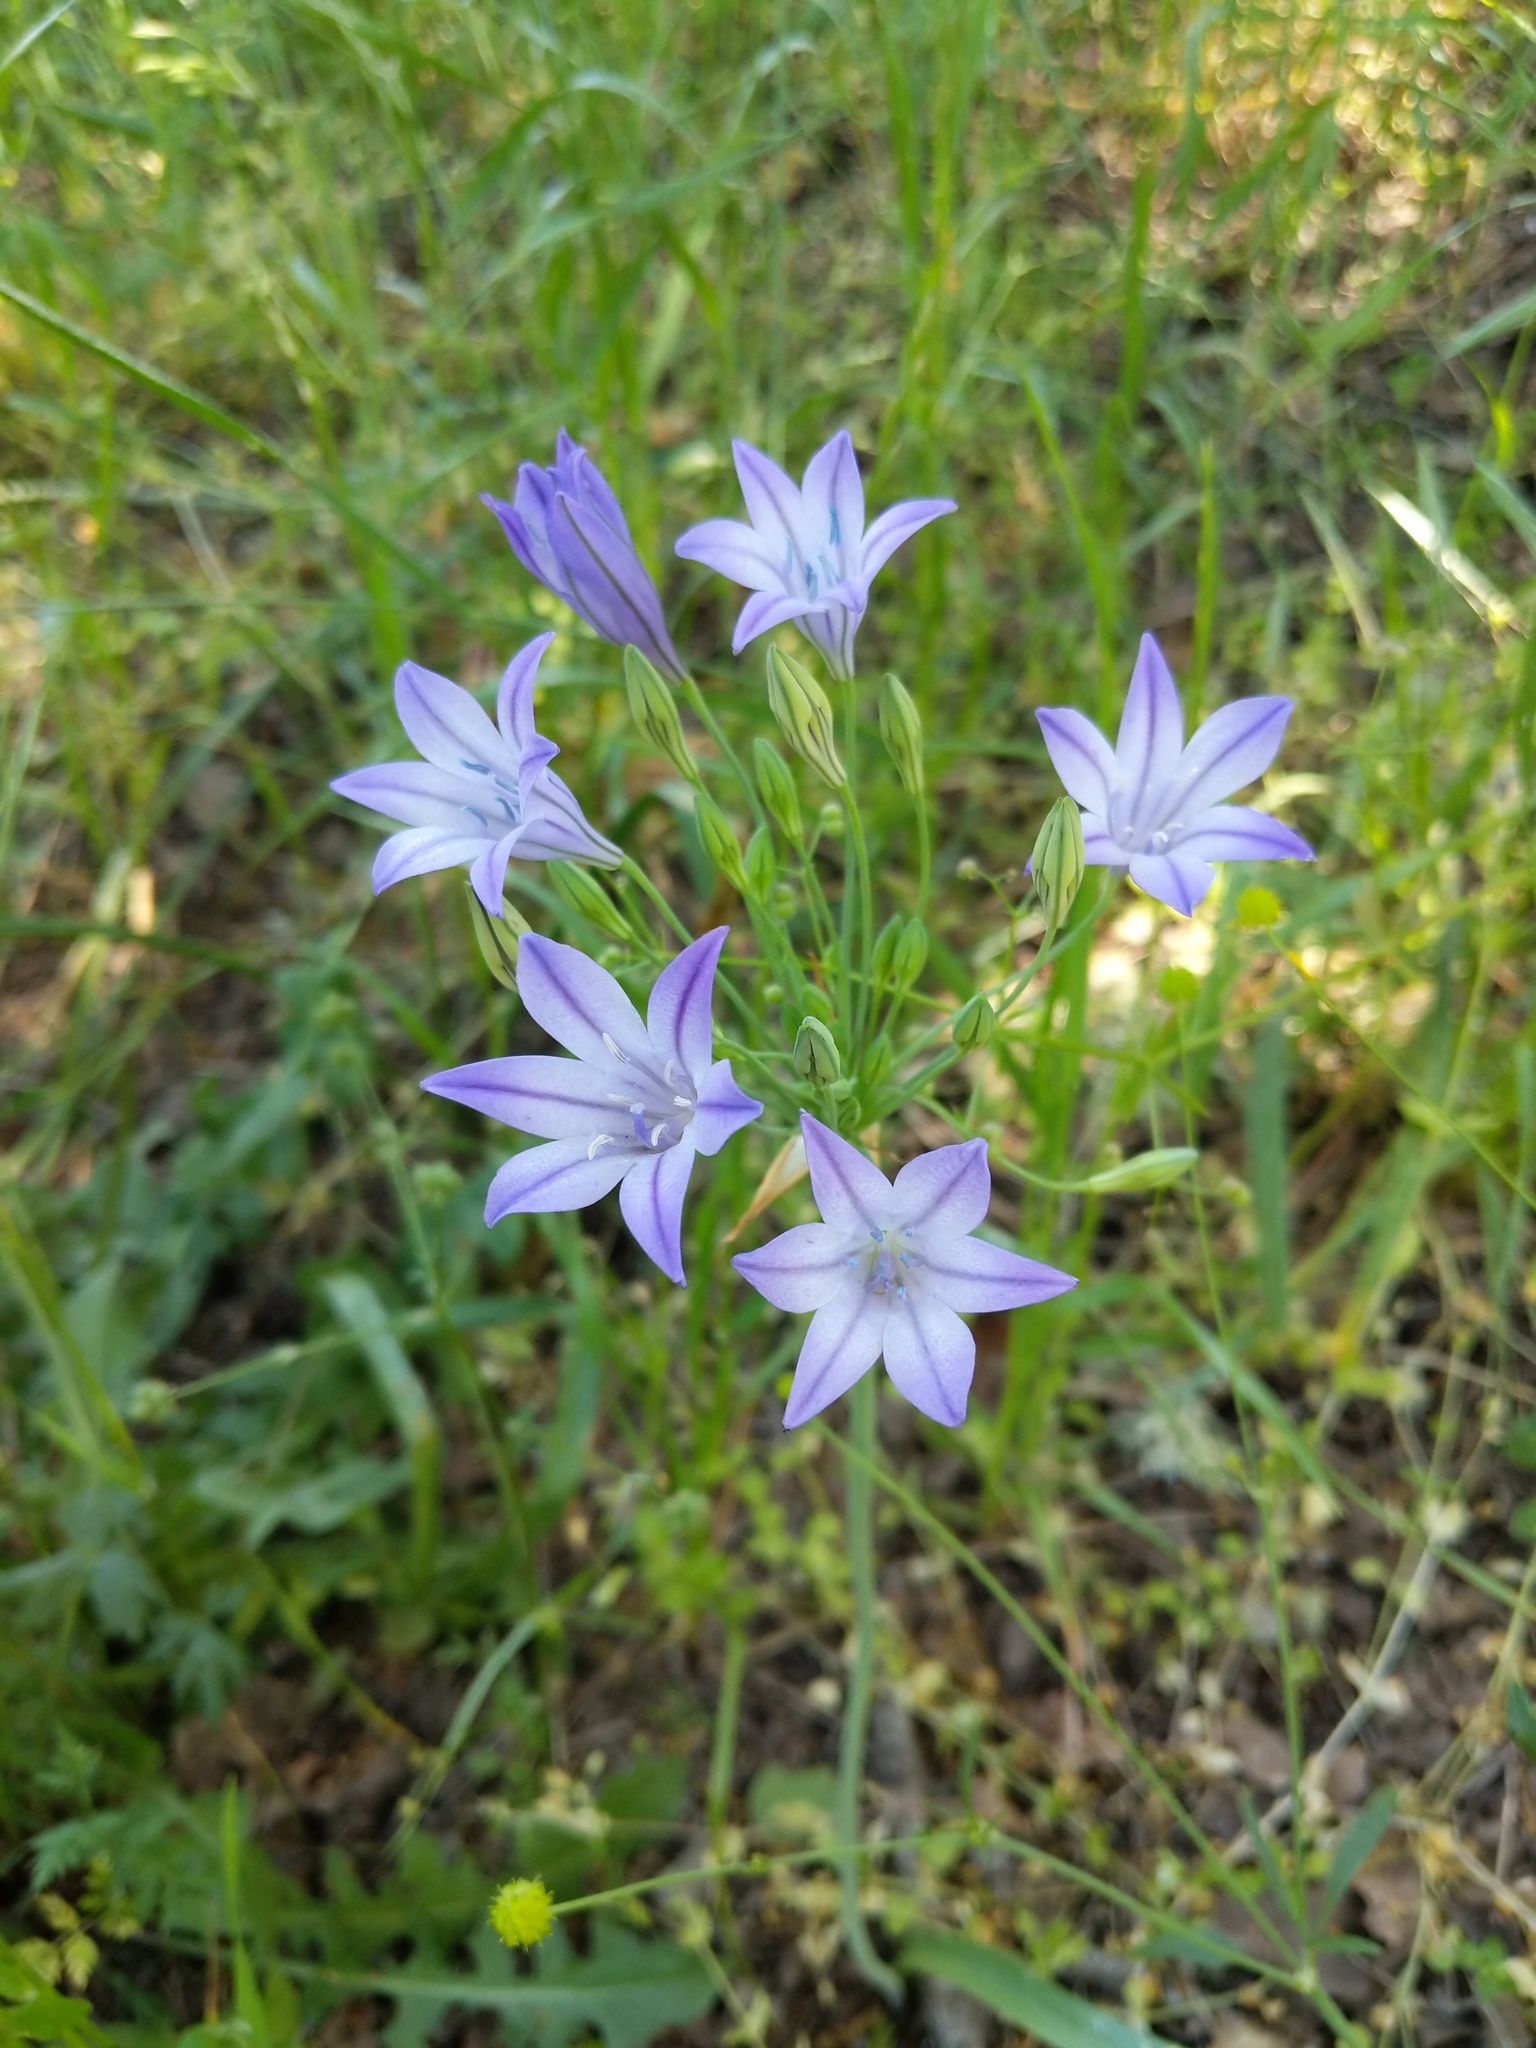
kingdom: Plantae
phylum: Tracheophyta
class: Liliopsida
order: Asparagales
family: Asparagaceae
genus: Triteleia
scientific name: Triteleia laxa
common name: Triplet-lily
